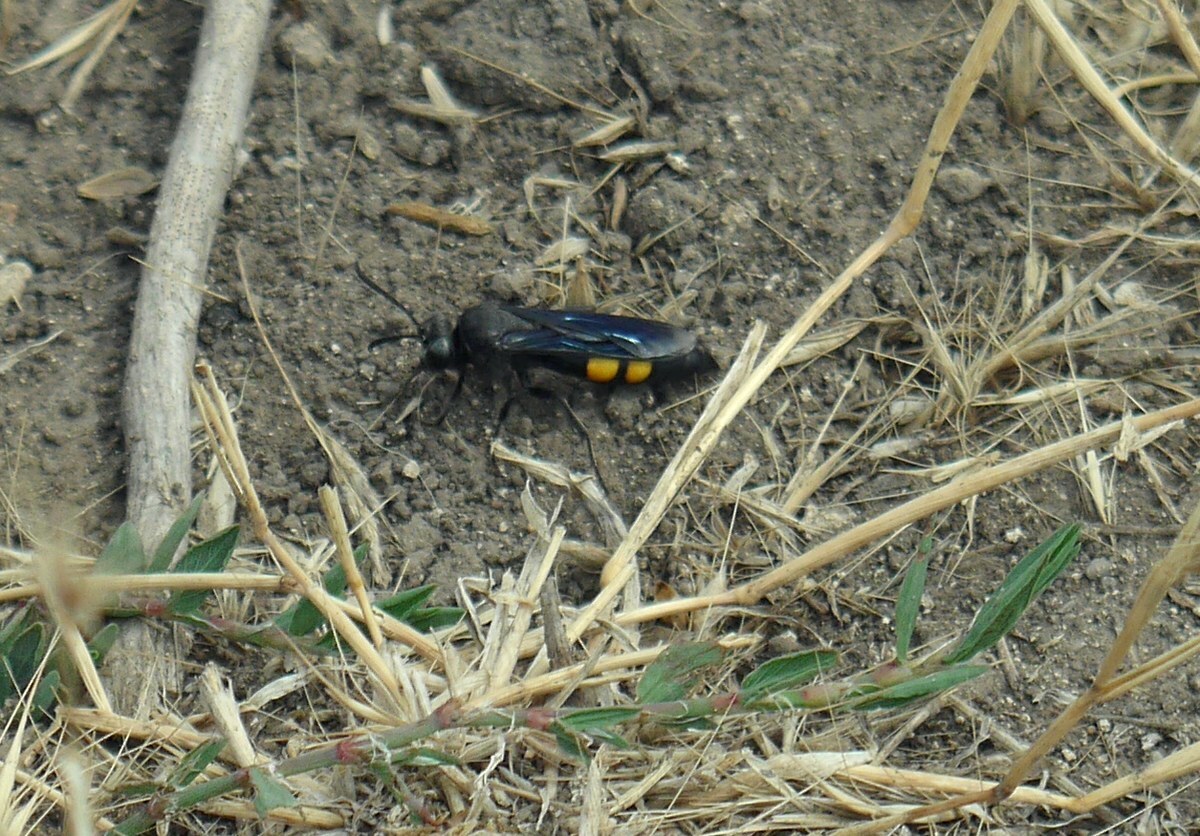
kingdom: Animalia
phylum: Arthropoda
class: Insecta
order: Hymenoptera
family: Crabronidae
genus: Stizoides
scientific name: Stizoides tridentatus
